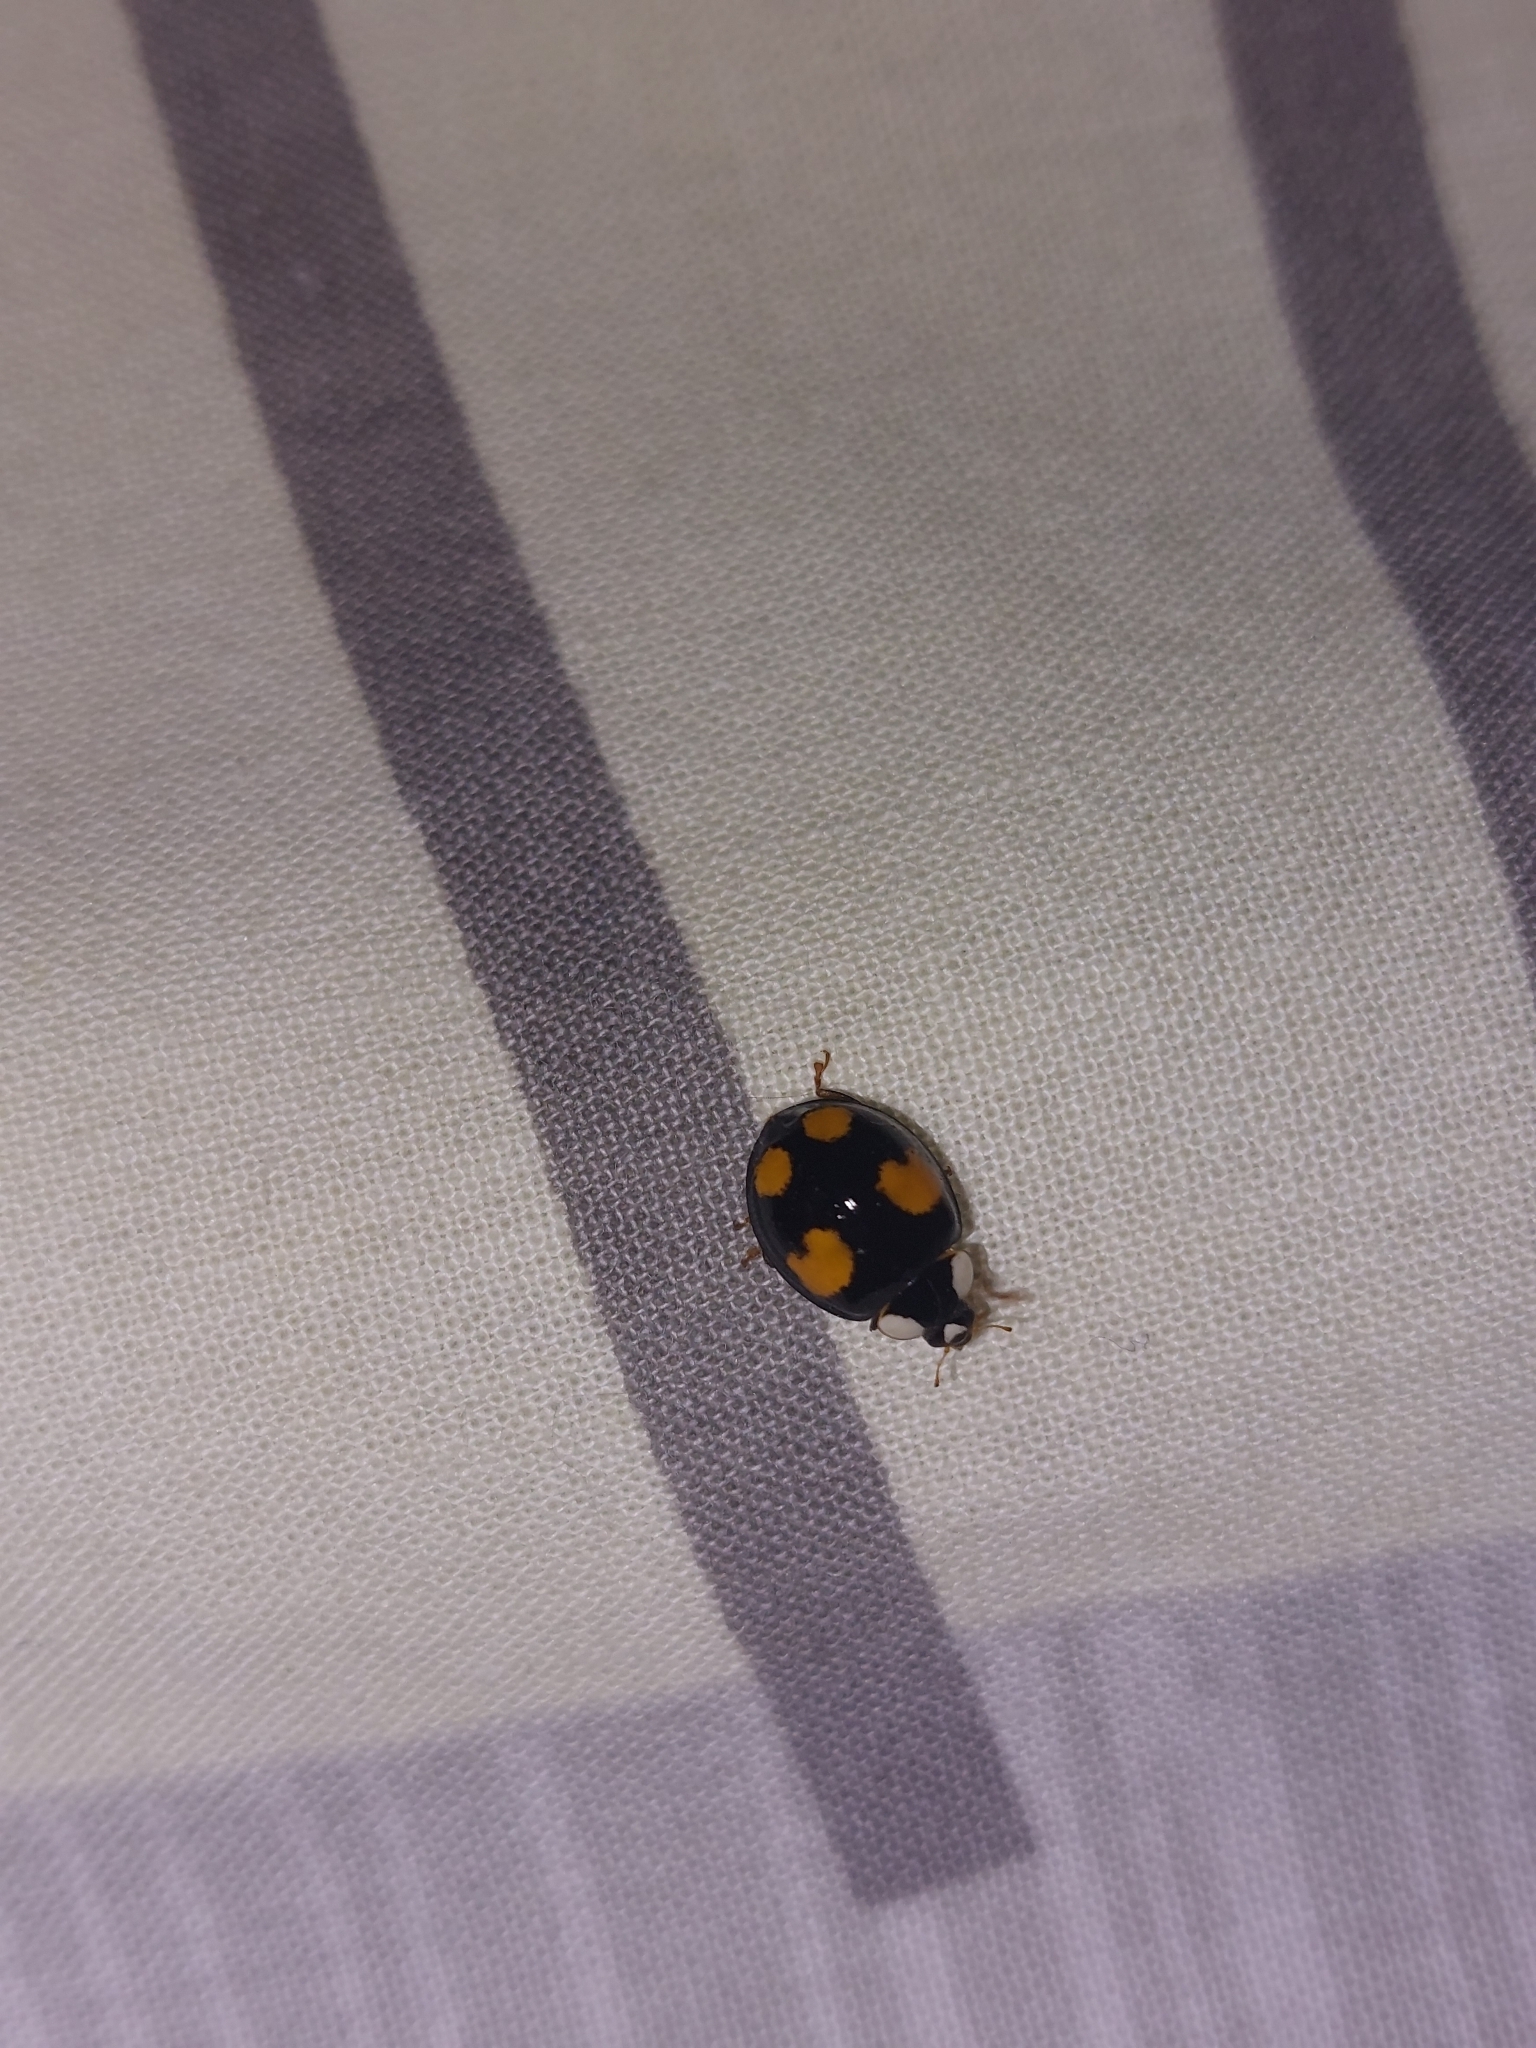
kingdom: Animalia
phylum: Arthropoda
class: Insecta
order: Coleoptera
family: Coccinellidae
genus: Harmonia
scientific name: Harmonia axyridis
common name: Harlequin ladybird
